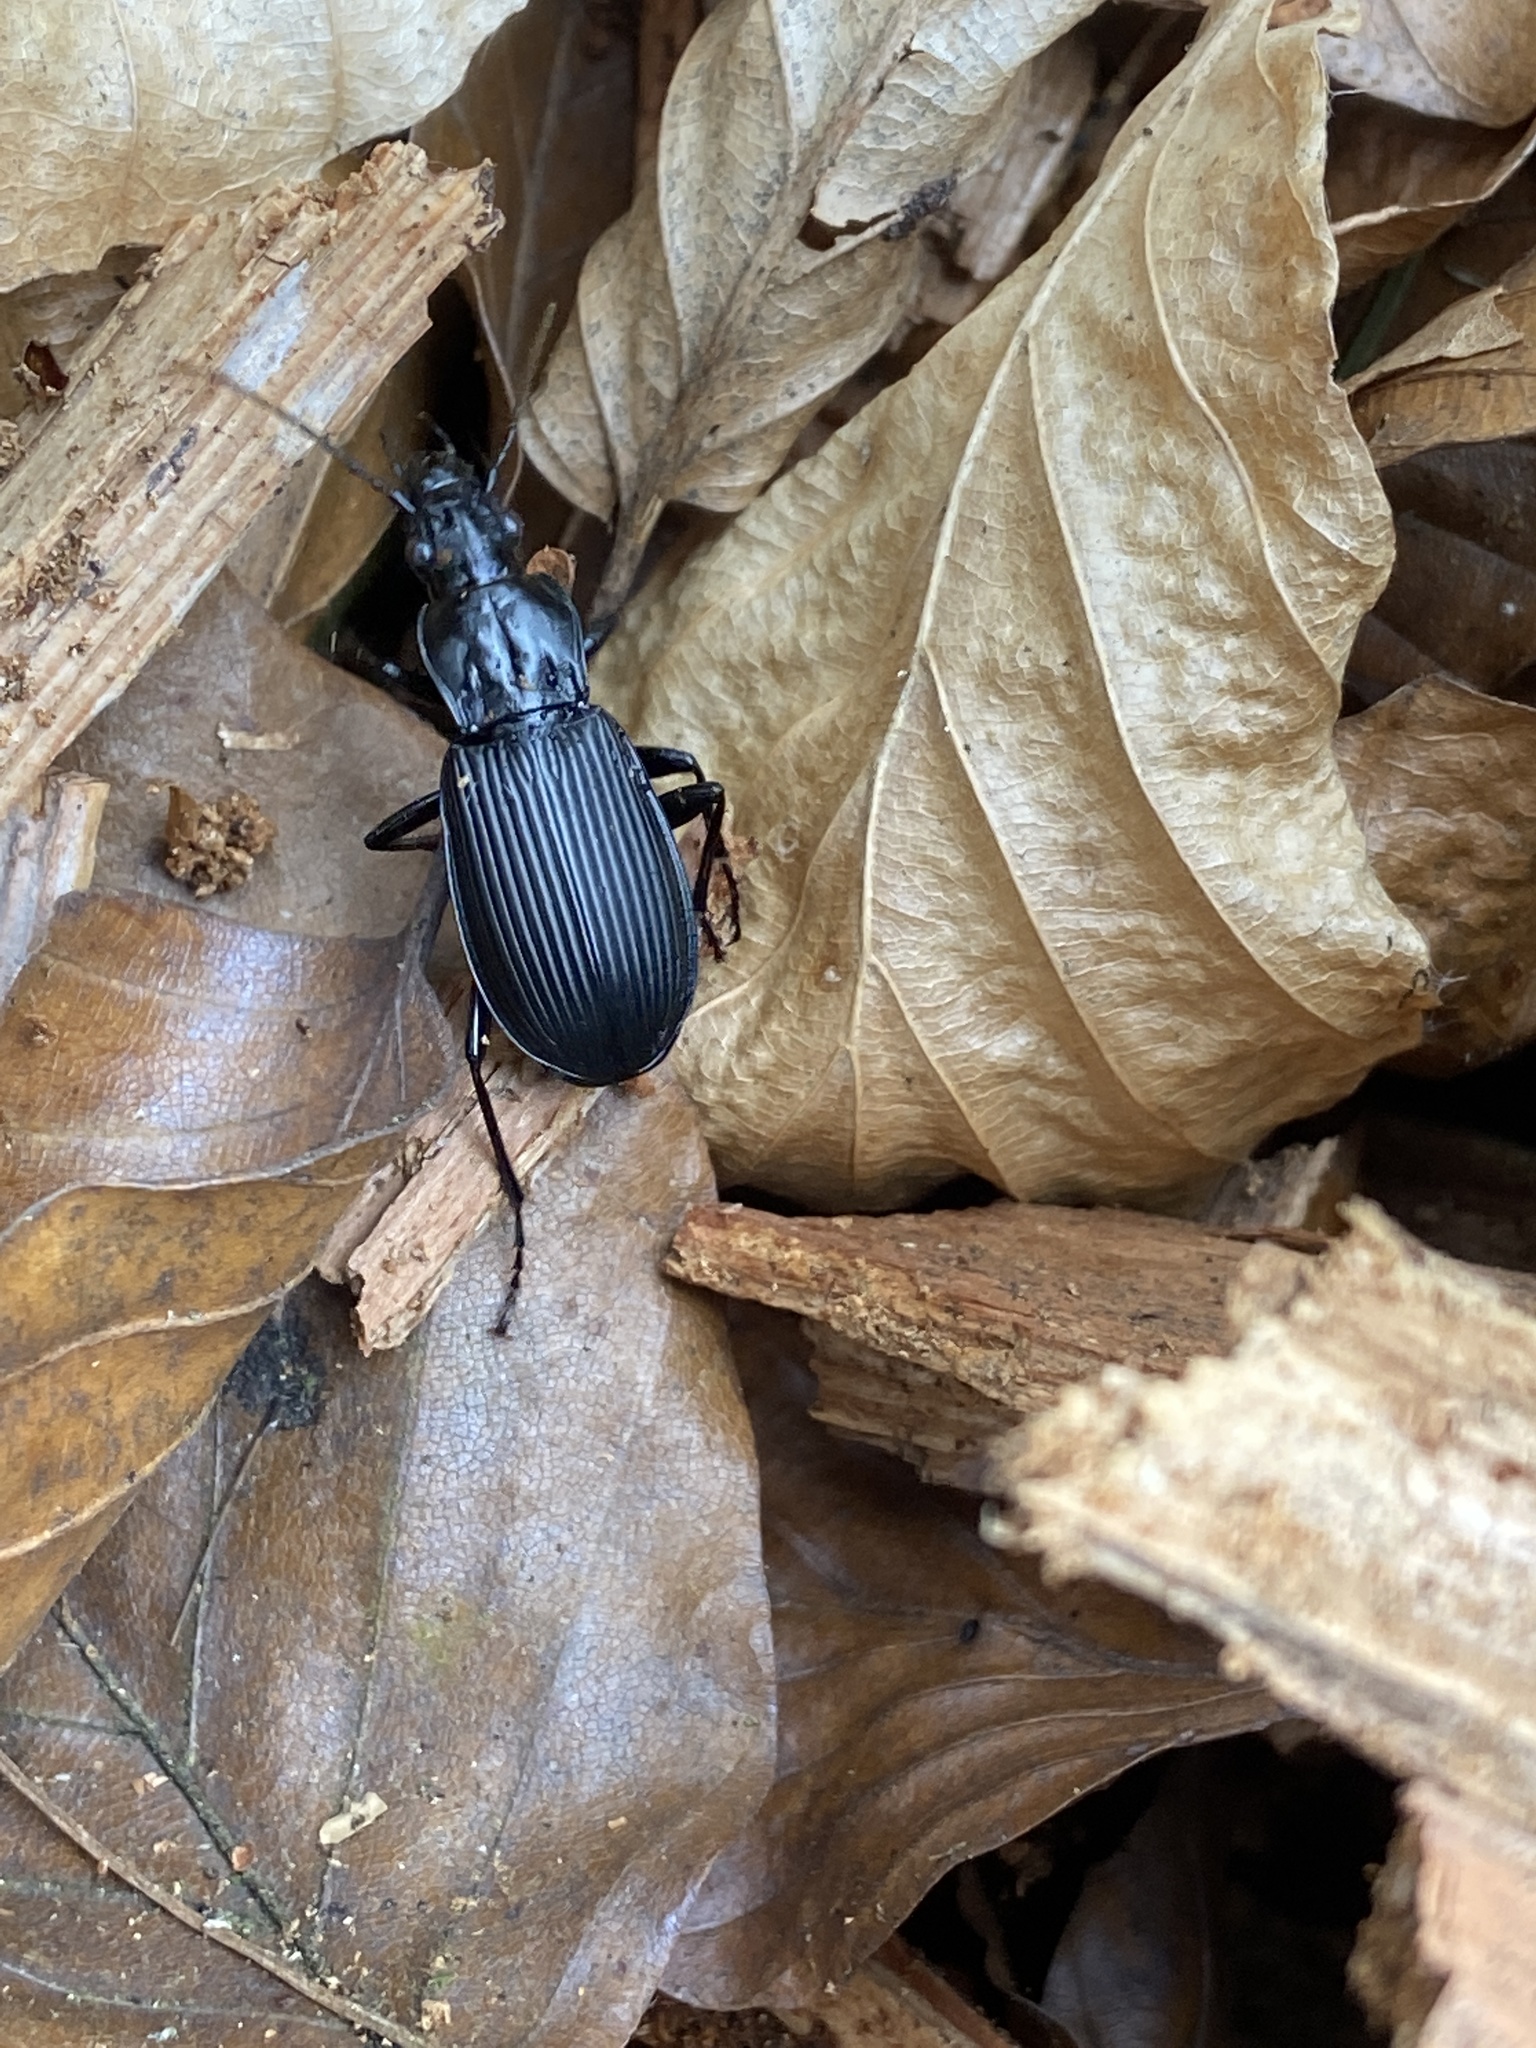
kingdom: Animalia
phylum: Arthropoda
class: Insecta
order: Coleoptera
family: Carabidae
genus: Pterostichus
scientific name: Pterostichus niger
